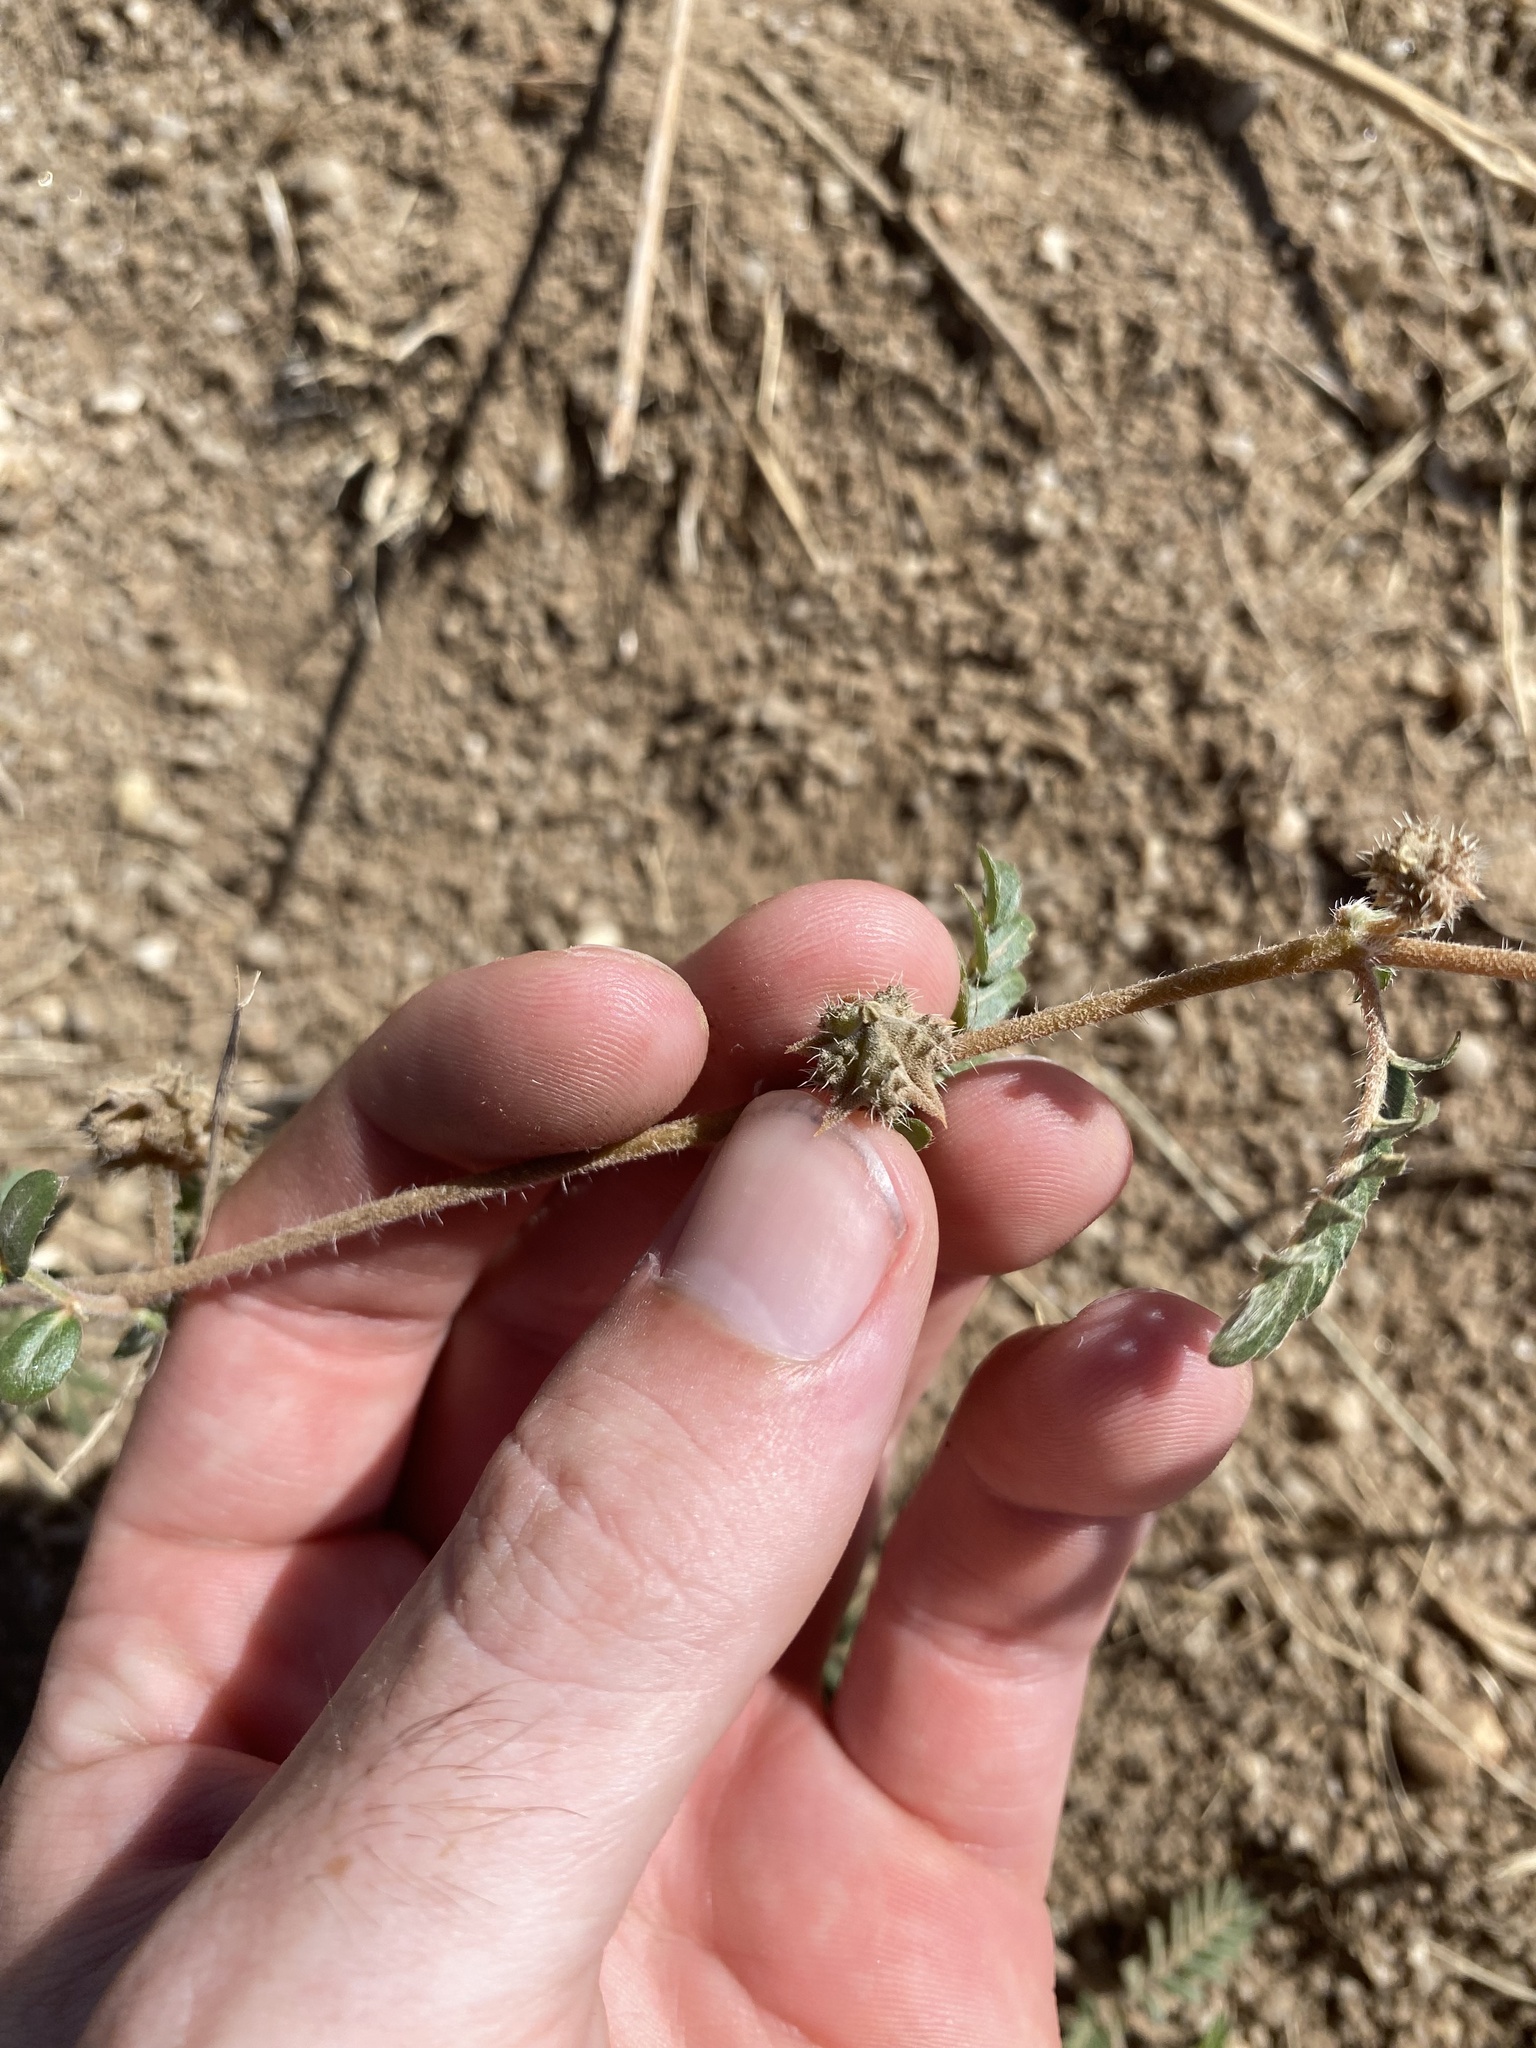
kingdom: Plantae
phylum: Tracheophyta
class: Magnoliopsida
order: Zygophyllales
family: Zygophyllaceae
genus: Tribulus
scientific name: Tribulus terrestris
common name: Puncturevine
